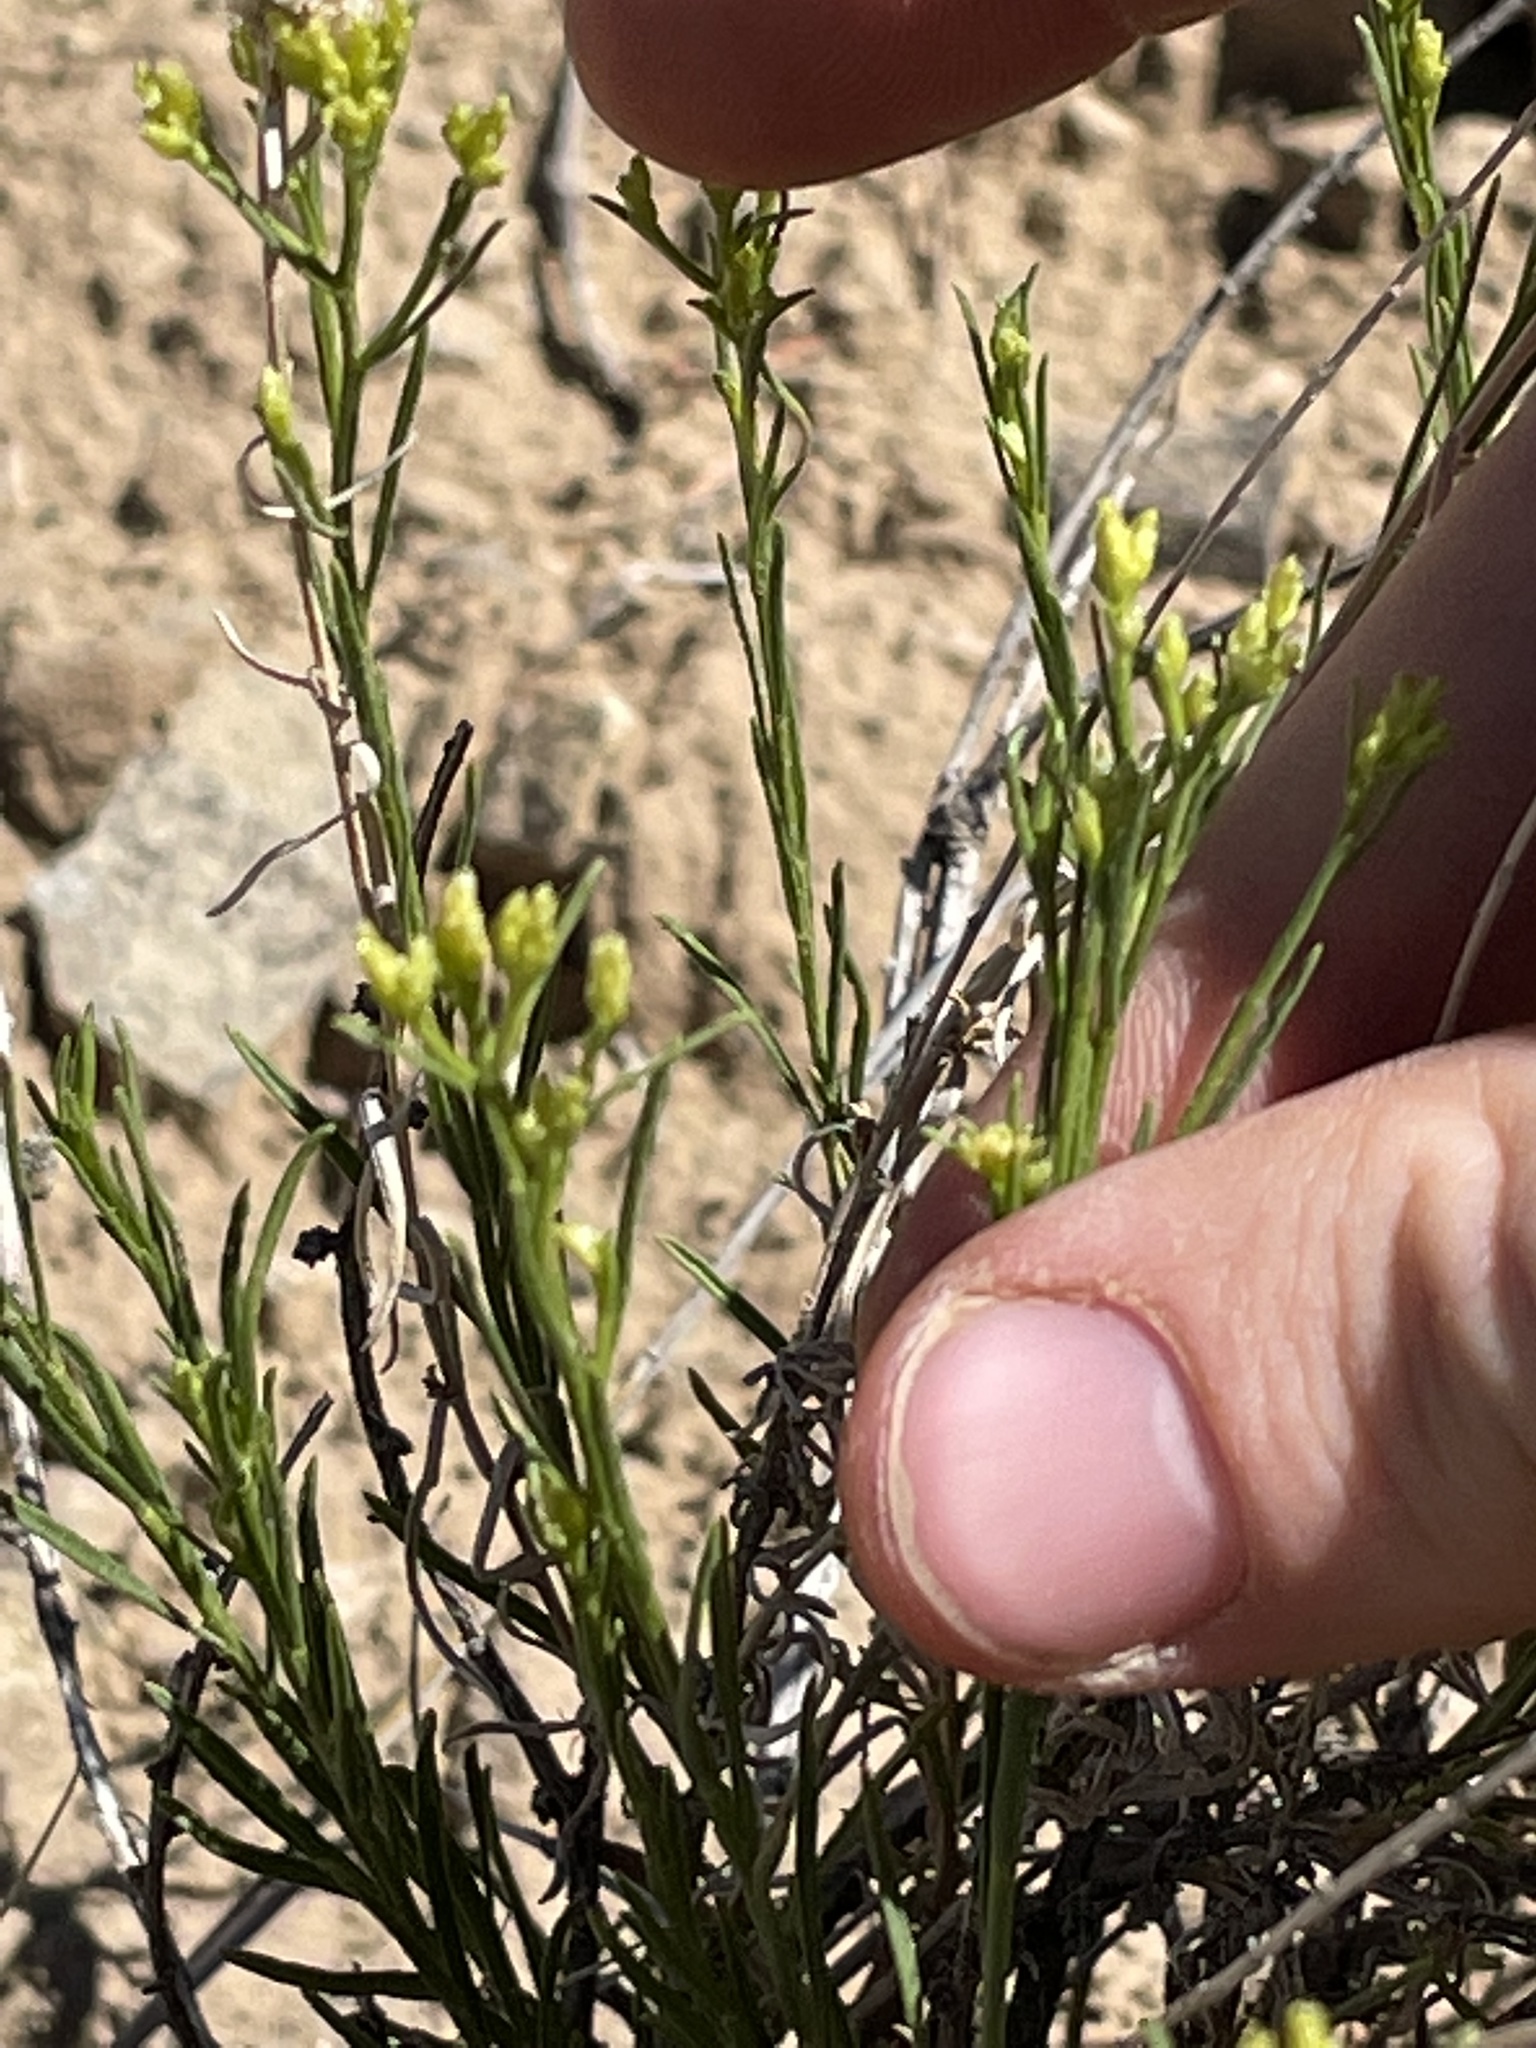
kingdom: Plantae
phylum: Tracheophyta
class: Magnoliopsida
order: Asterales
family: Asteraceae
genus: Gutierrezia
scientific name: Gutierrezia sarothrae
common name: Broom snakeweed
